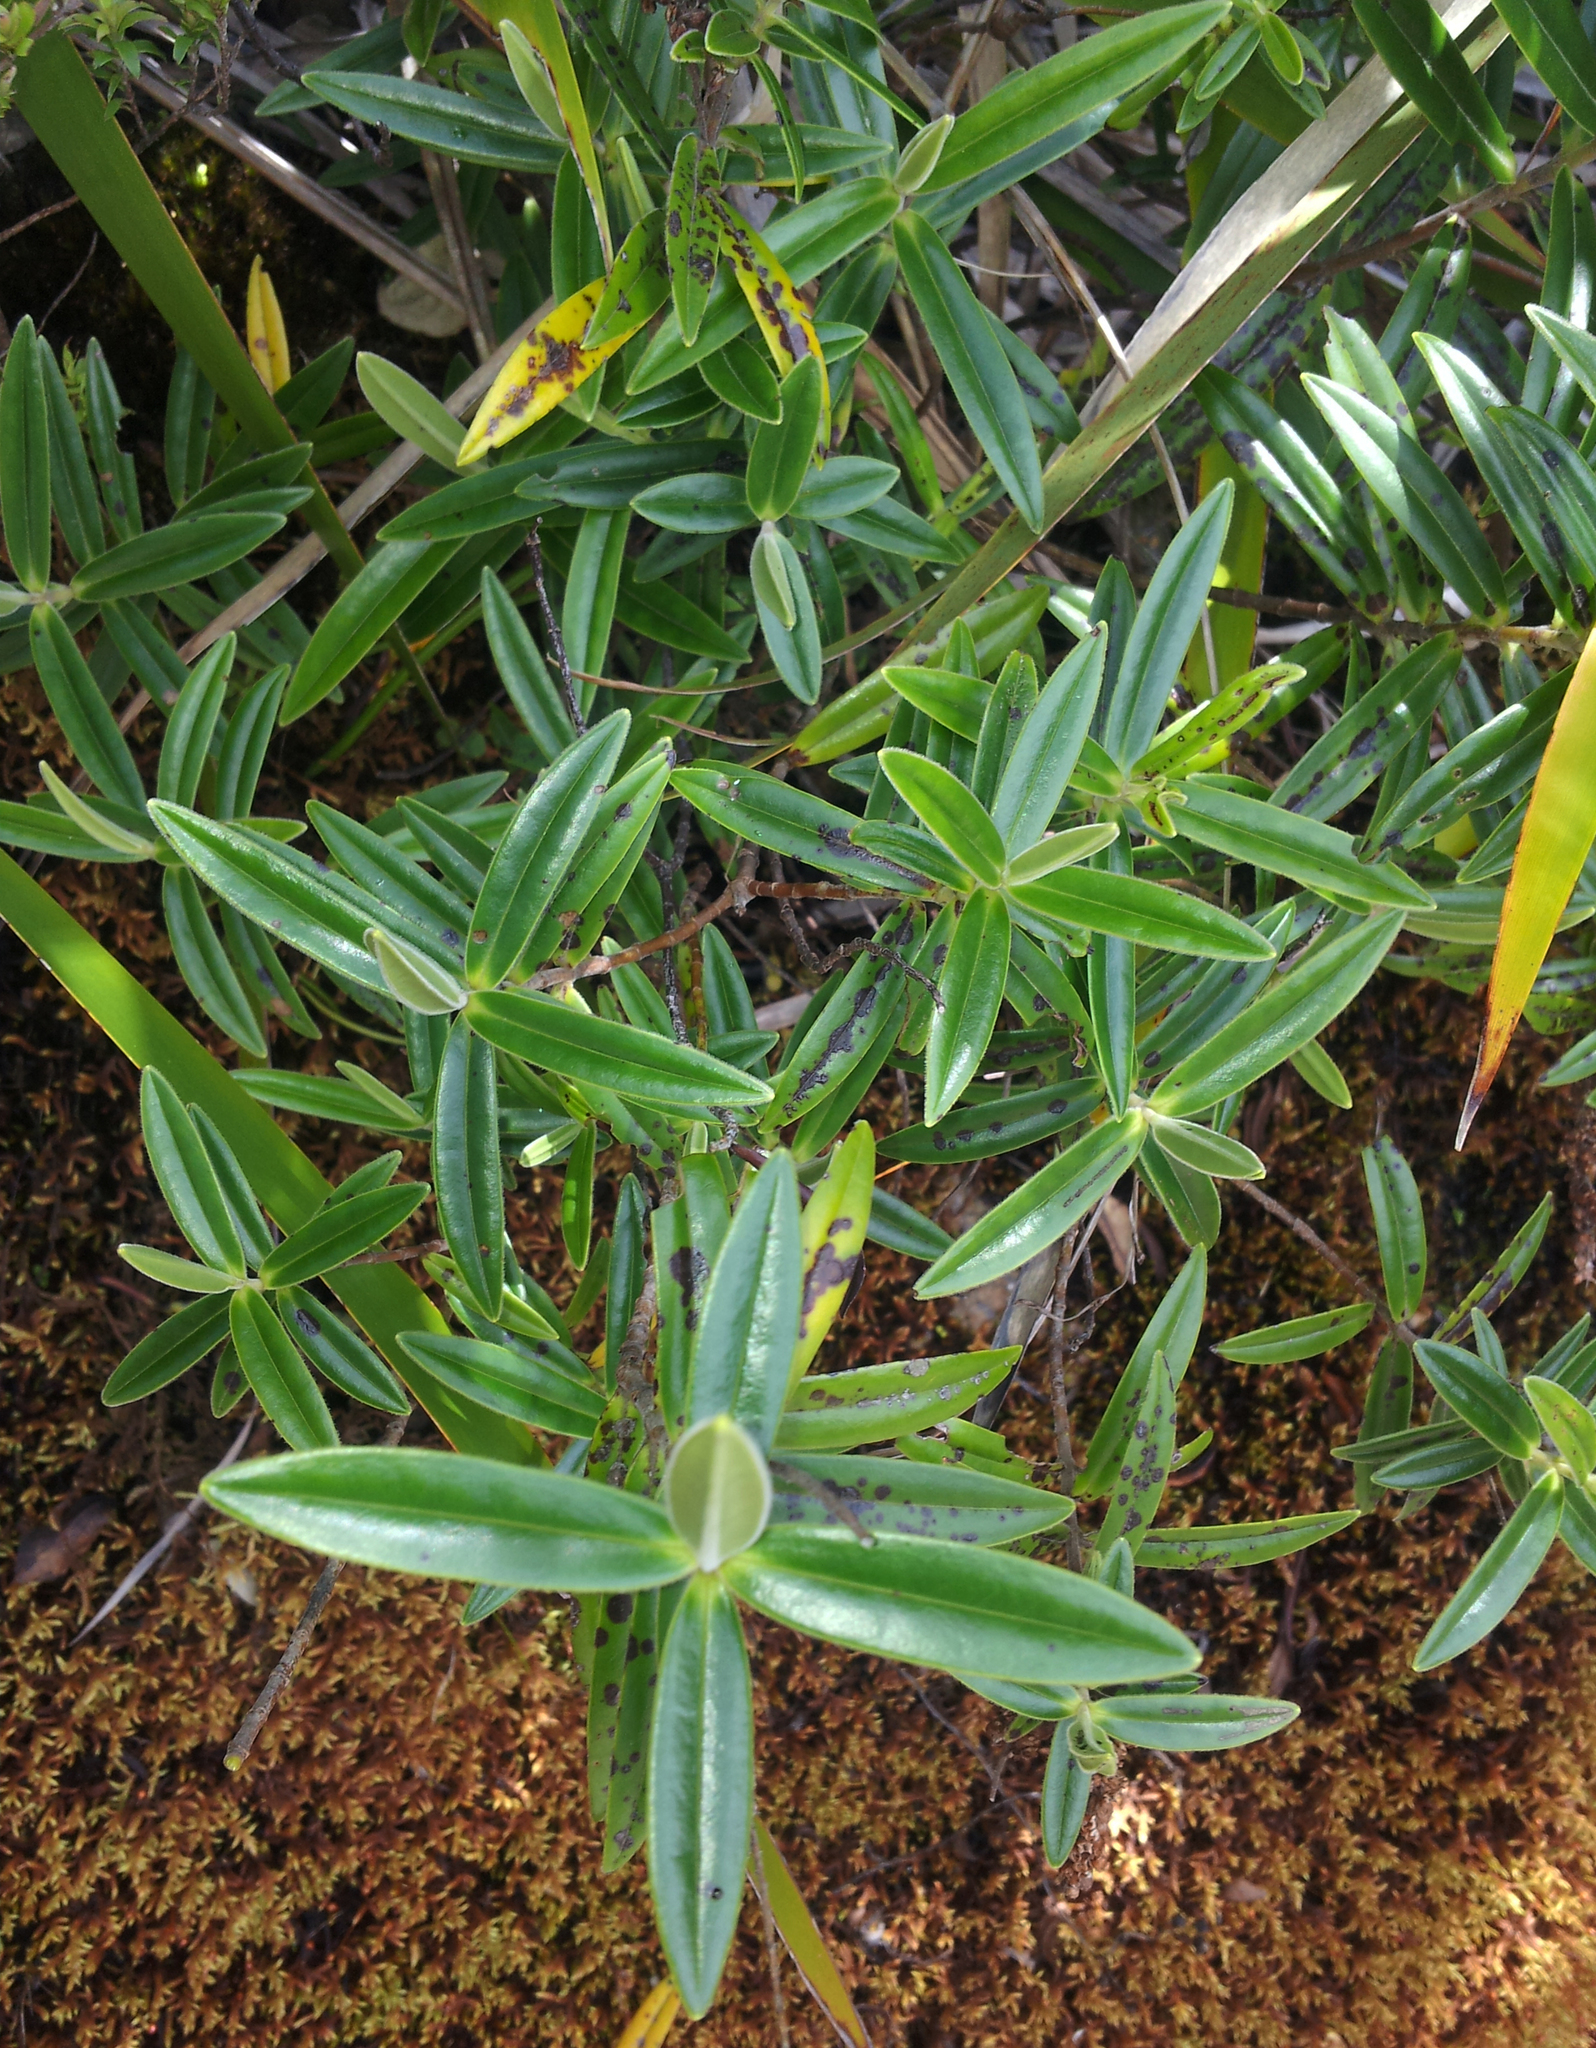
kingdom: Plantae
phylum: Tracheophyta
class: Magnoliopsida
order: Lamiales
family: Plantaginaceae
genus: Veronica
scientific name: Veronica pubescens
